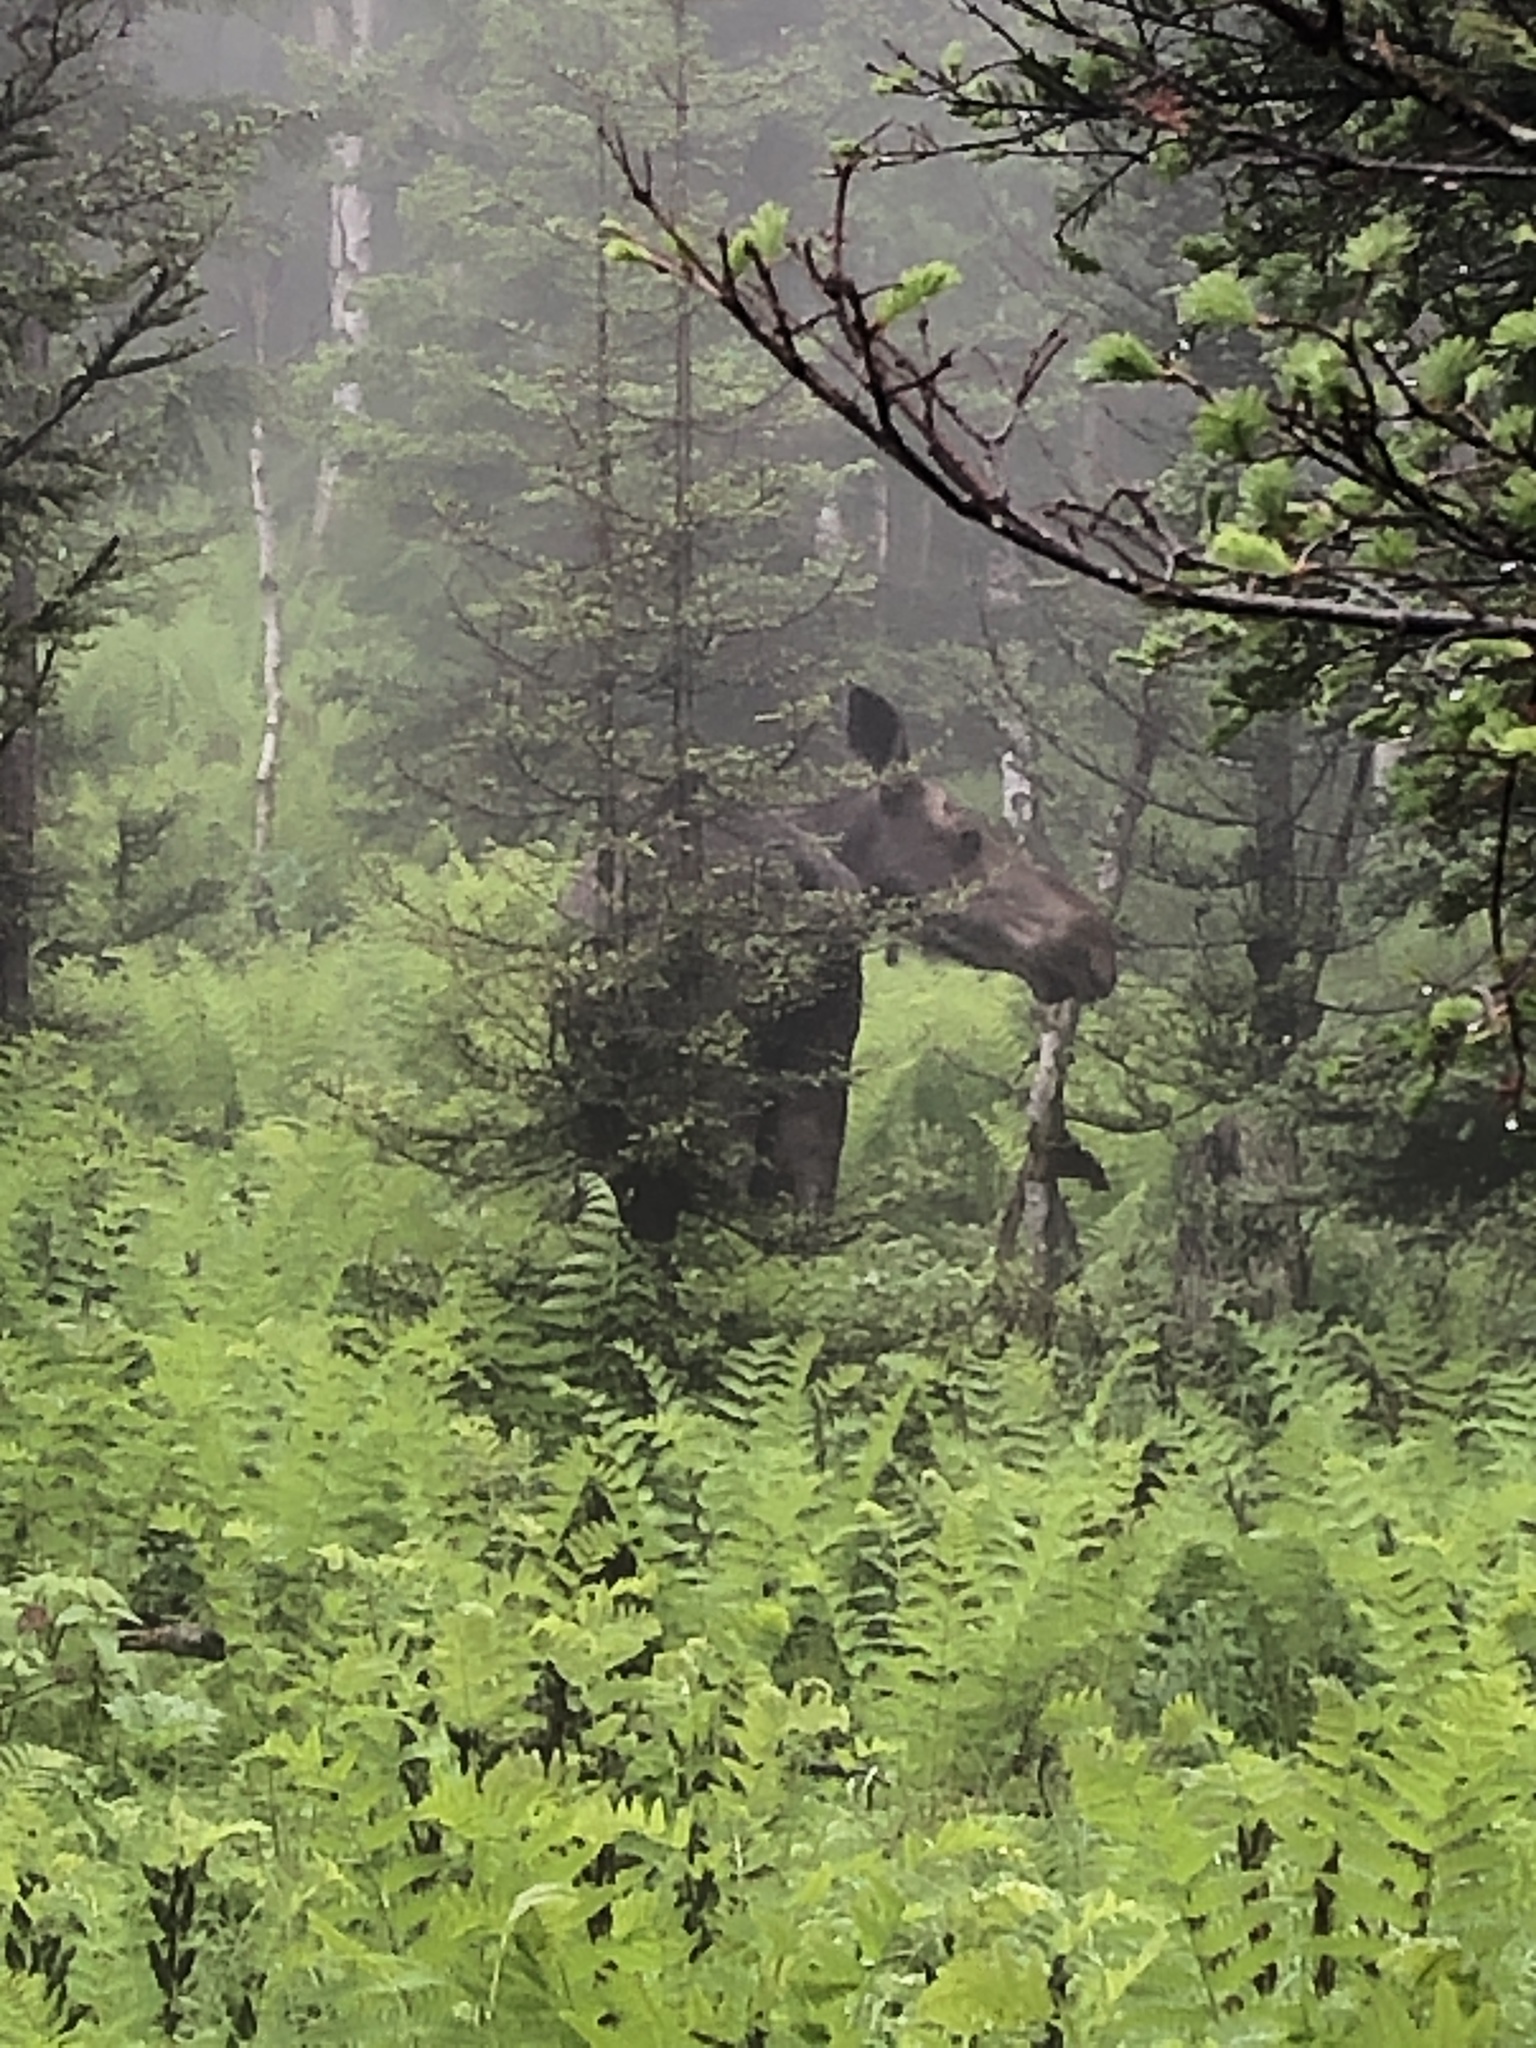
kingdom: Animalia
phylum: Chordata
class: Mammalia
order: Artiodactyla
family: Cervidae
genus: Alces
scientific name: Alces alces
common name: Moose
